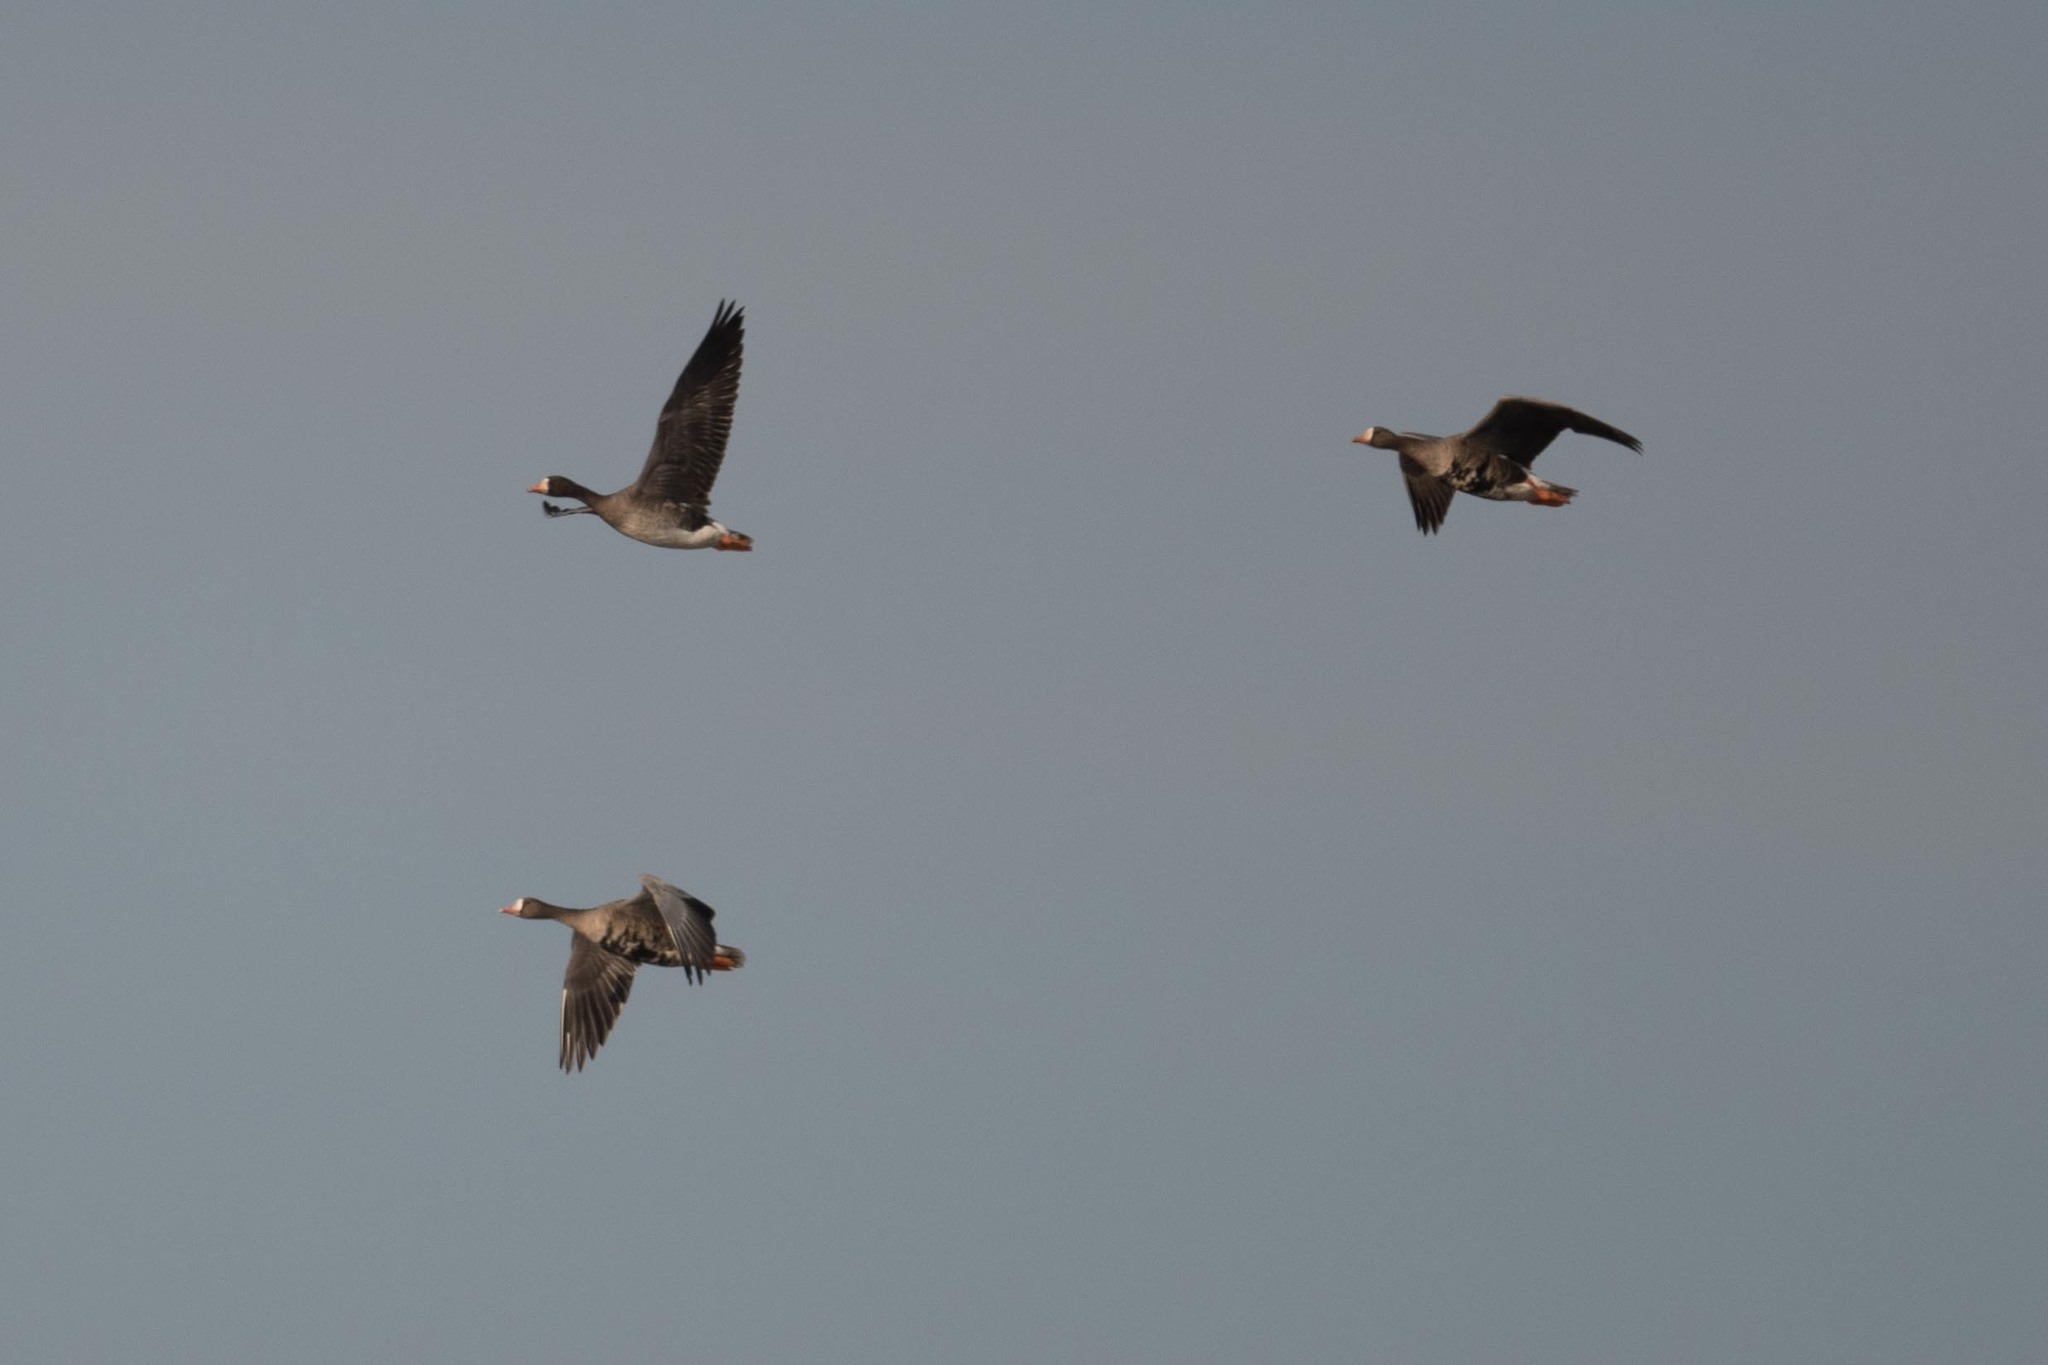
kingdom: Animalia
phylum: Chordata
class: Aves
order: Anseriformes
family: Anatidae
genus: Anser
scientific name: Anser albifrons
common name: Greater white-fronted goose
